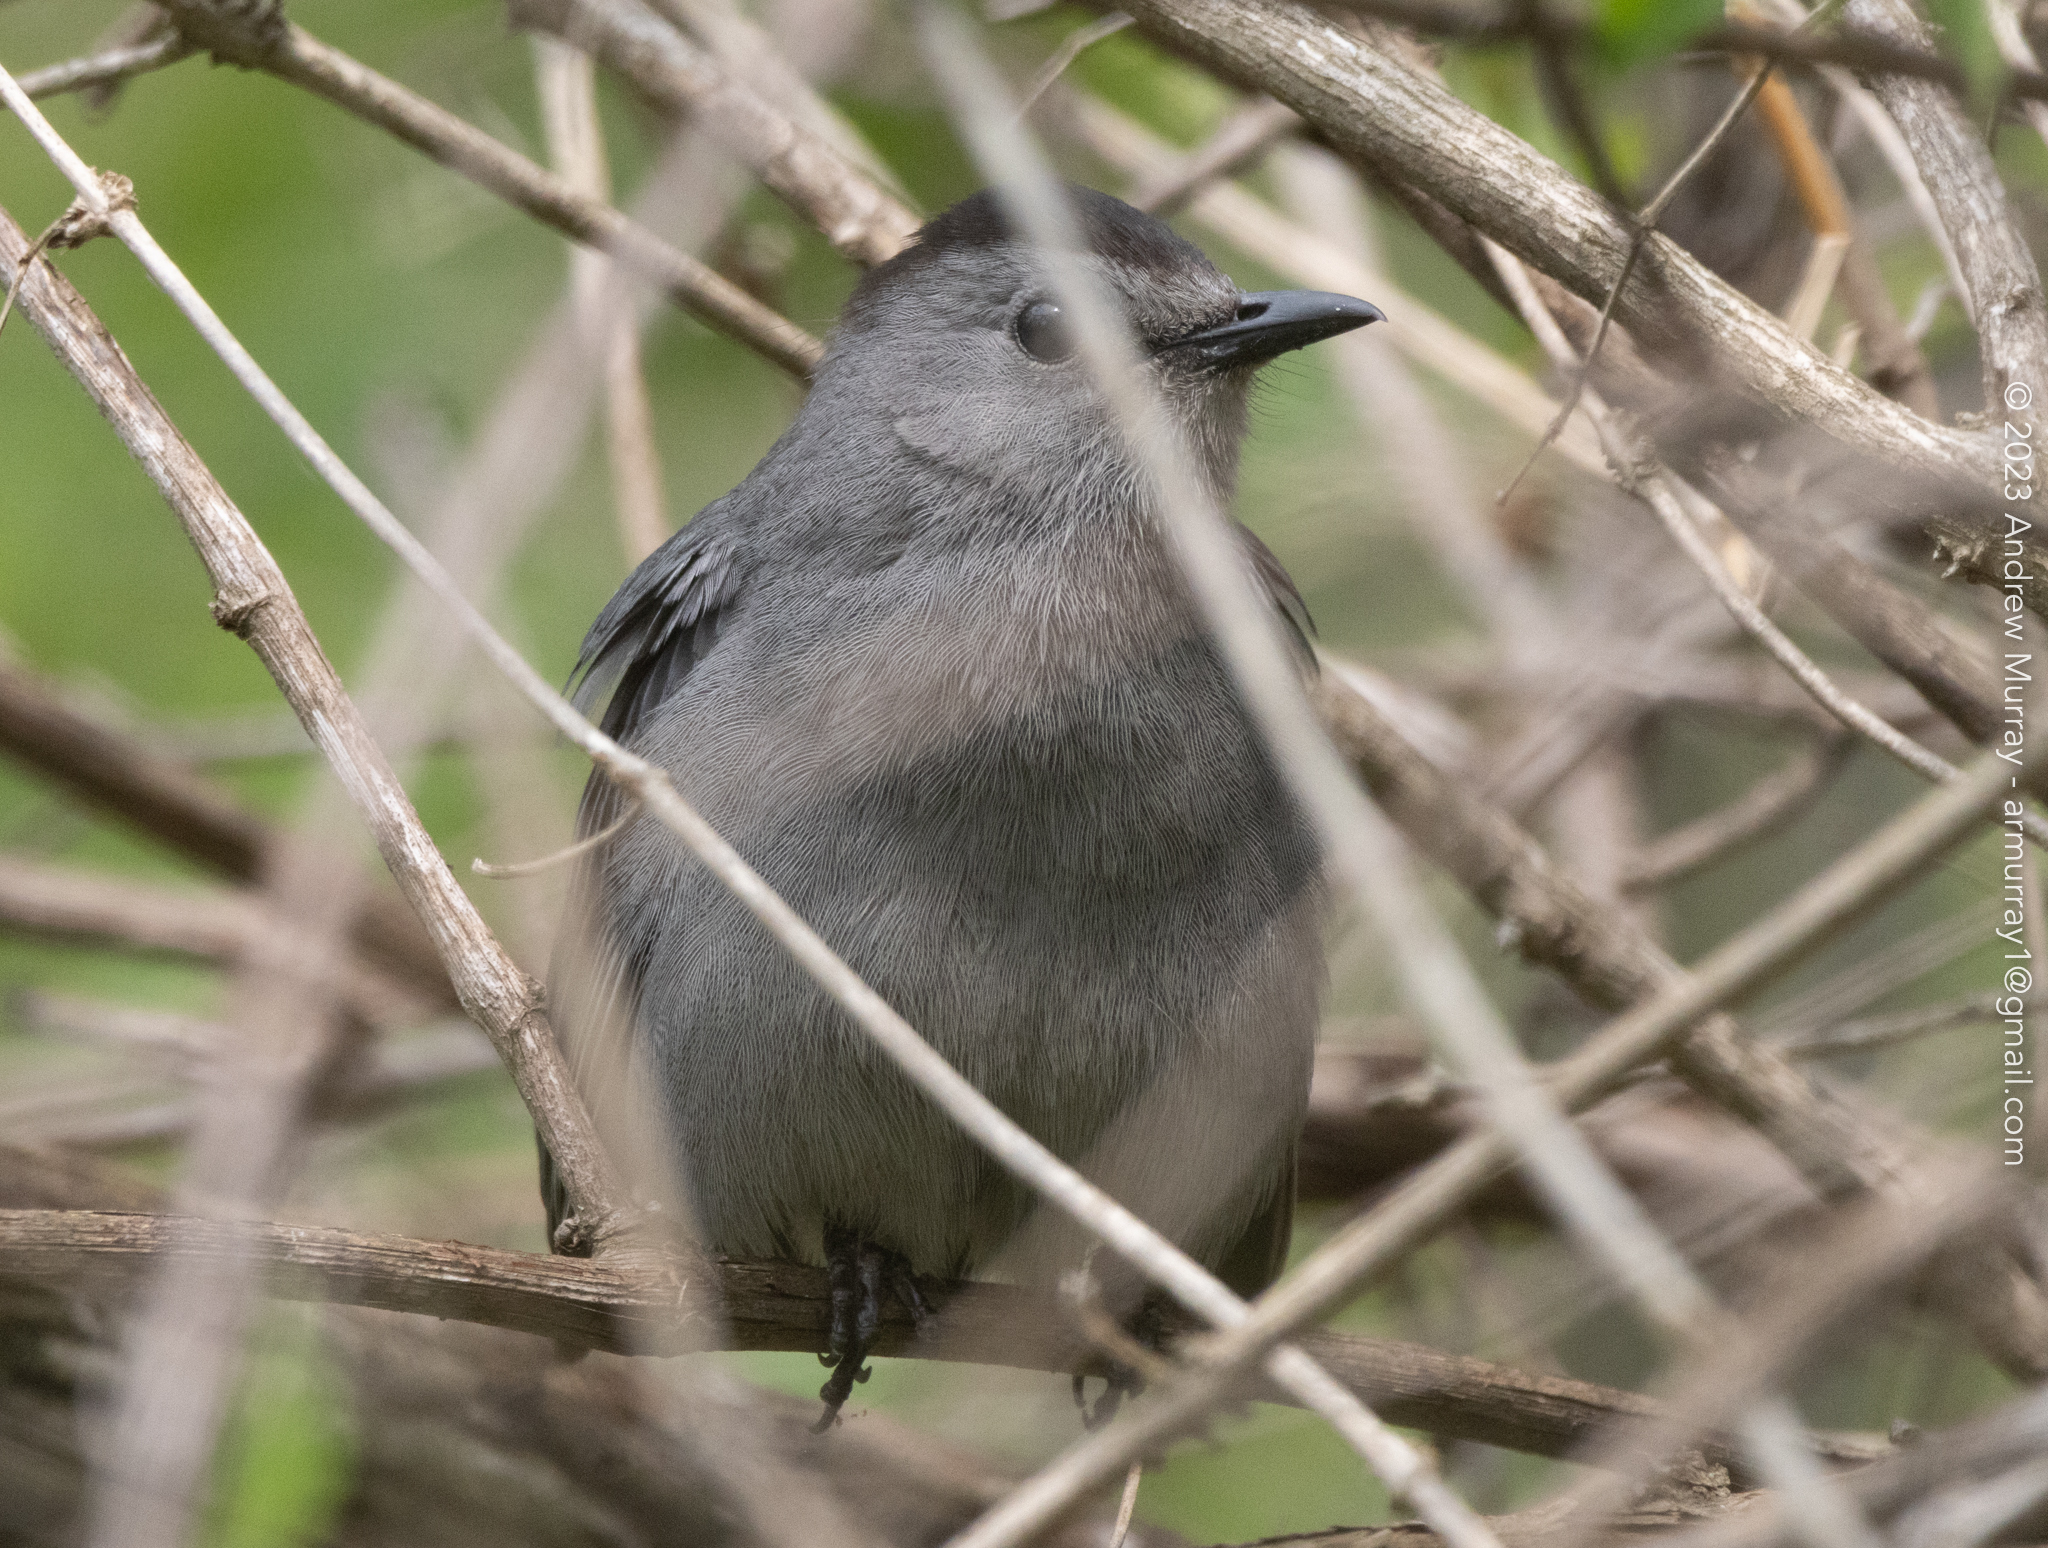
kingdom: Animalia
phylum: Chordata
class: Aves
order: Passeriformes
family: Mimidae
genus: Dumetella
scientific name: Dumetella carolinensis
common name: Gray catbird
